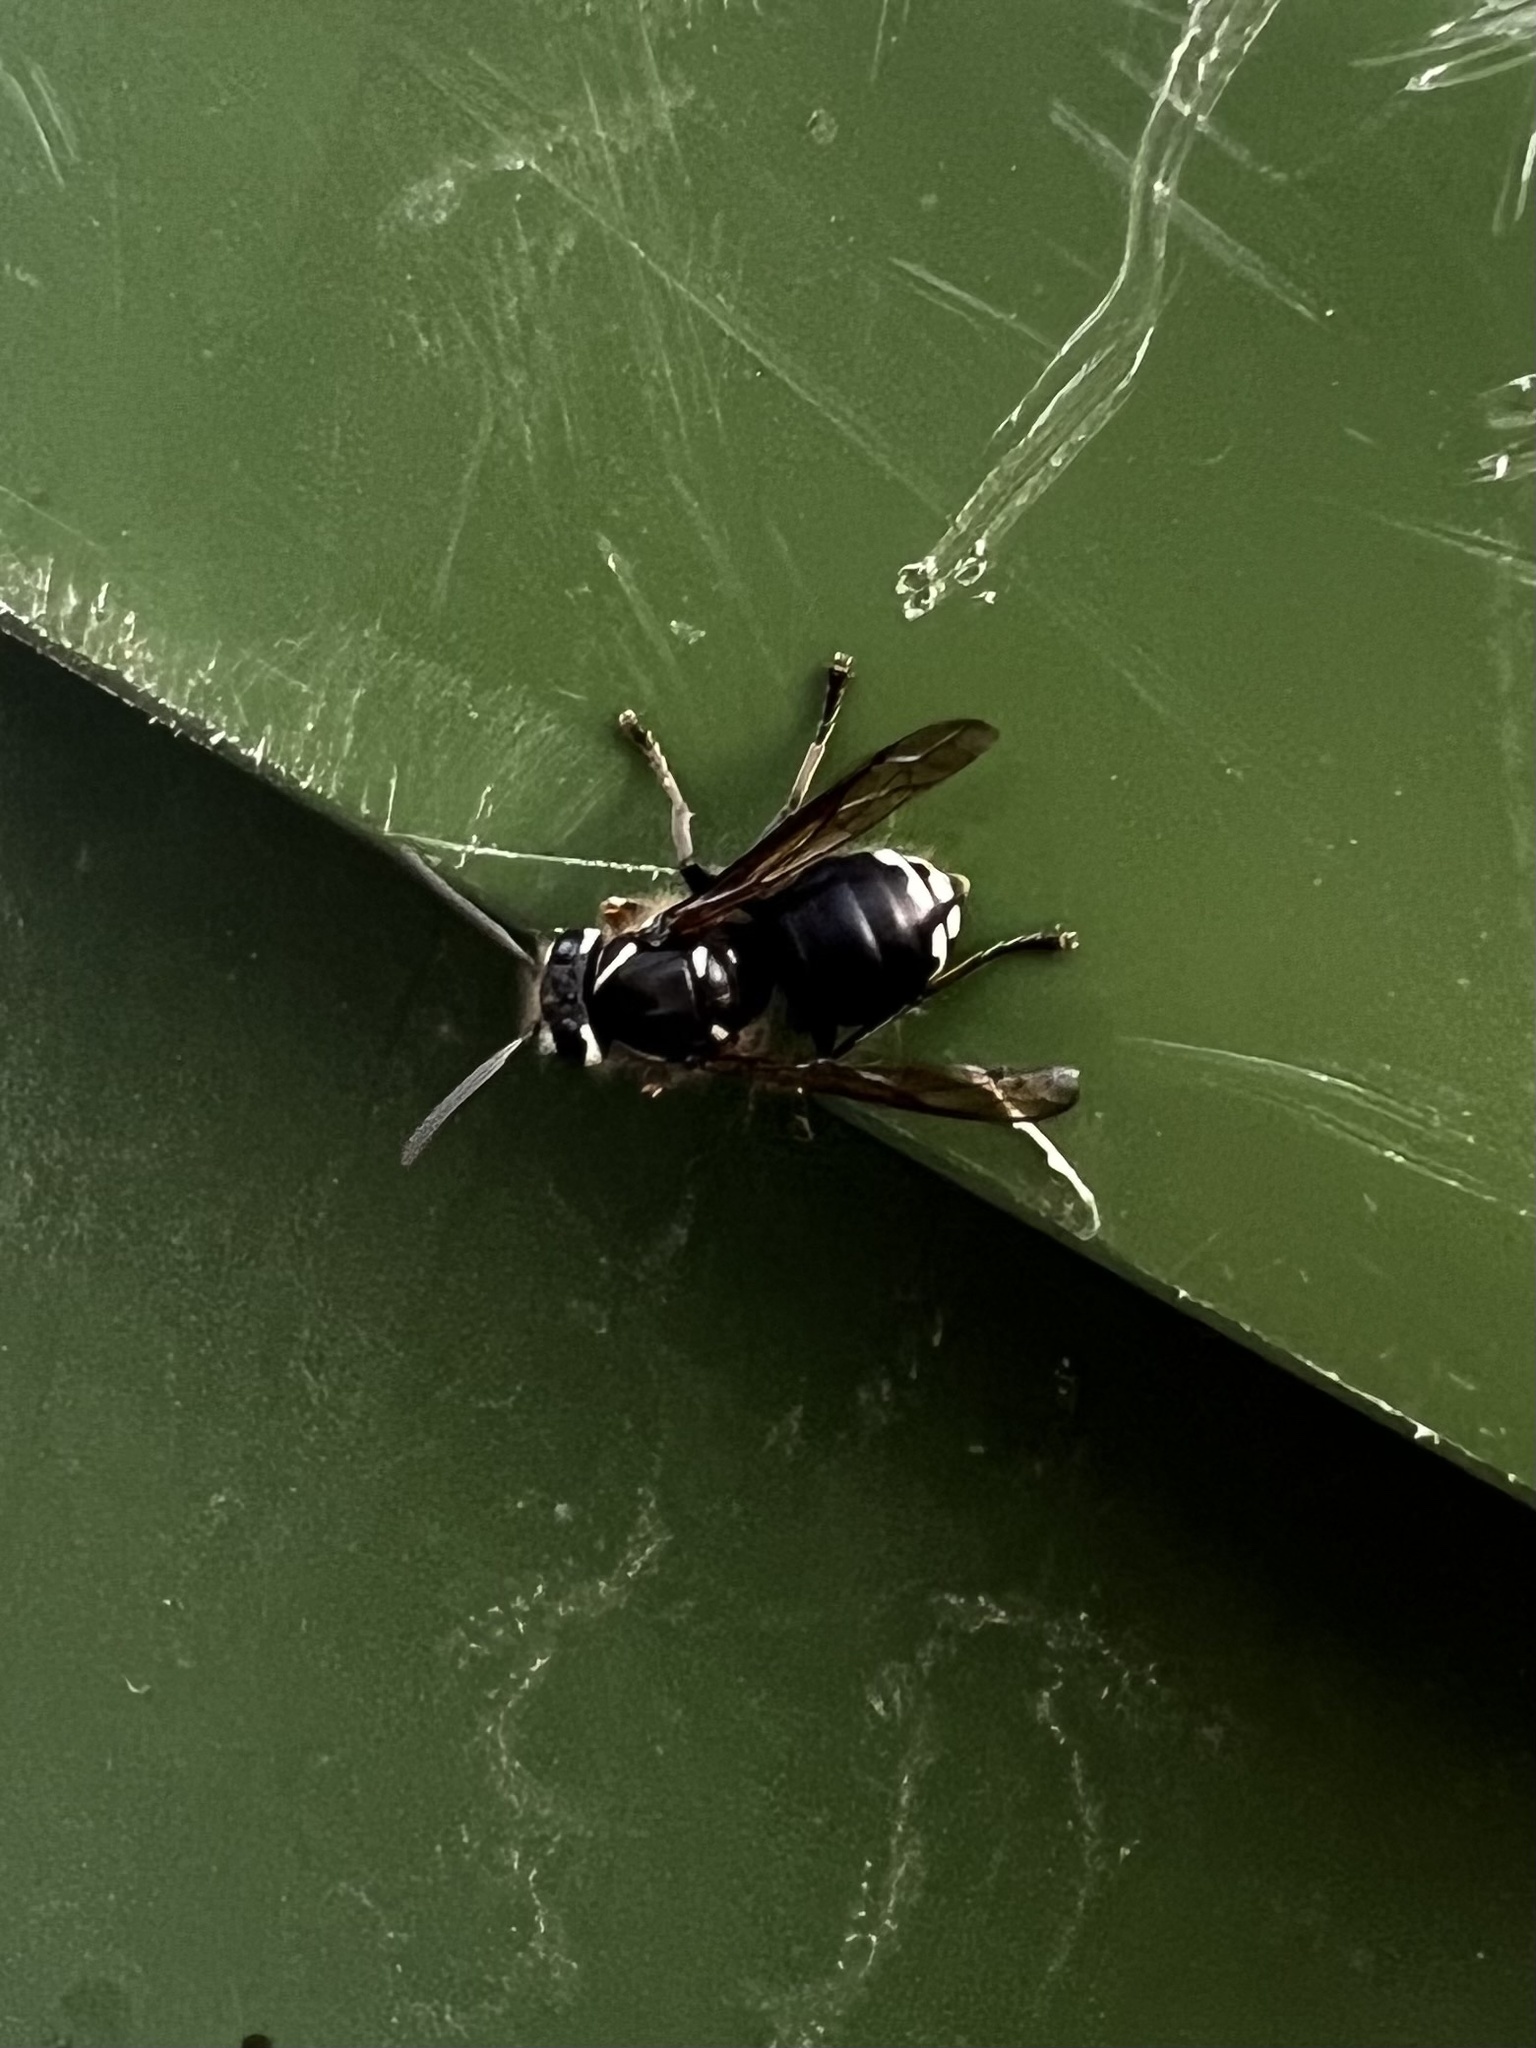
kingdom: Animalia
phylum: Arthropoda
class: Insecta
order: Hymenoptera
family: Vespidae
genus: Dolichovespula
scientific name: Dolichovespula maculata
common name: Bald-faced hornet
